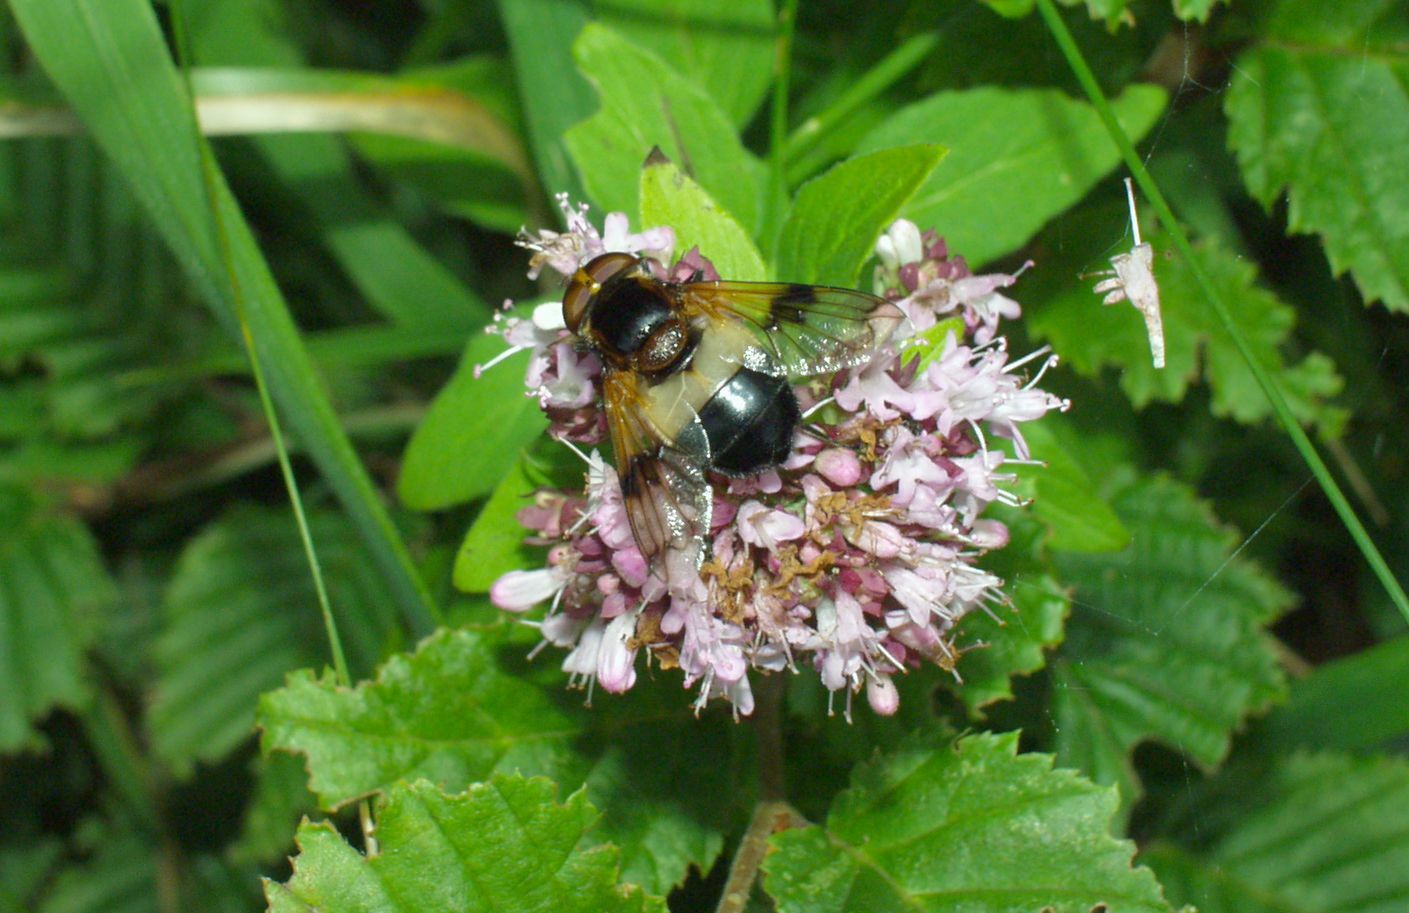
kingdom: Animalia
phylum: Arthropoda
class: Insecta
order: Diptera
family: Syrphidae
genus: Volucella
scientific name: Volucella pellucens
